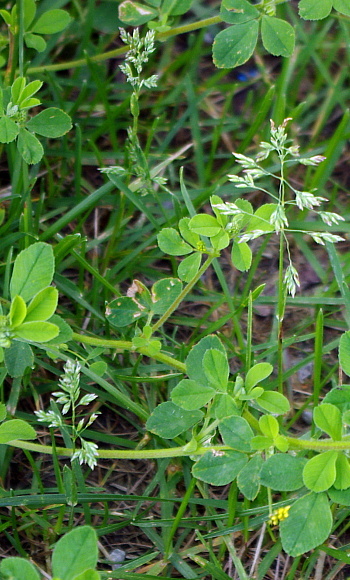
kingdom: Plantae
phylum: Tracheophyta
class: Liliopsida
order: Poales
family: Poaceae
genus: Poa
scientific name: Poa annua
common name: Annual bluegrass
